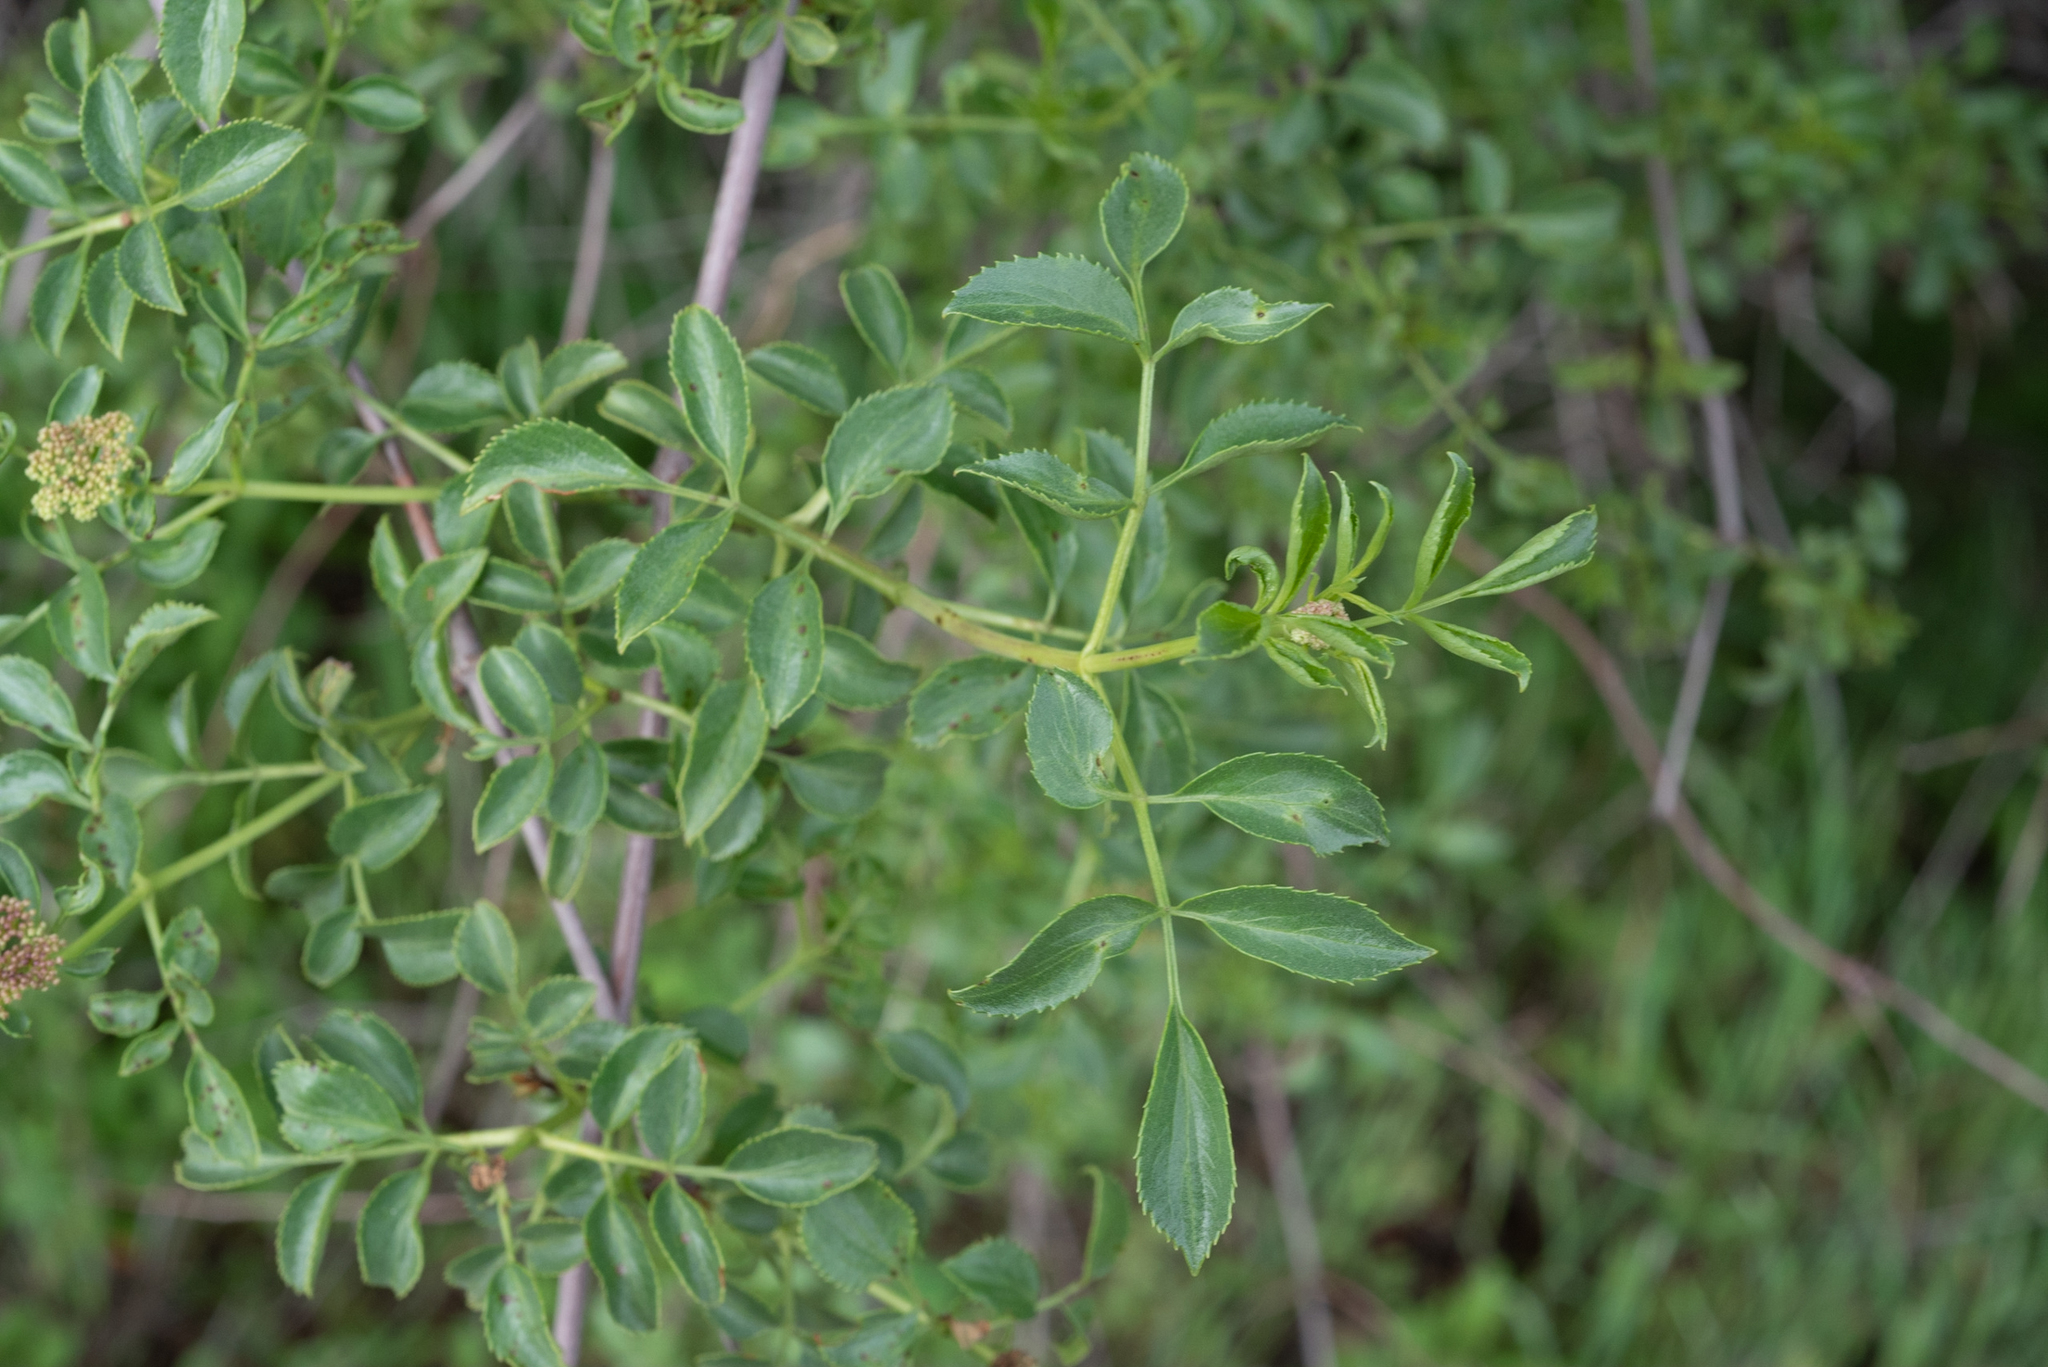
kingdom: Plantae
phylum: Tracheophyta
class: Magnoliopsida
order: Dipsacales
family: Viburnaceae
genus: Sambucus
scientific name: Sambucus cerulea
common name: Blue elder
